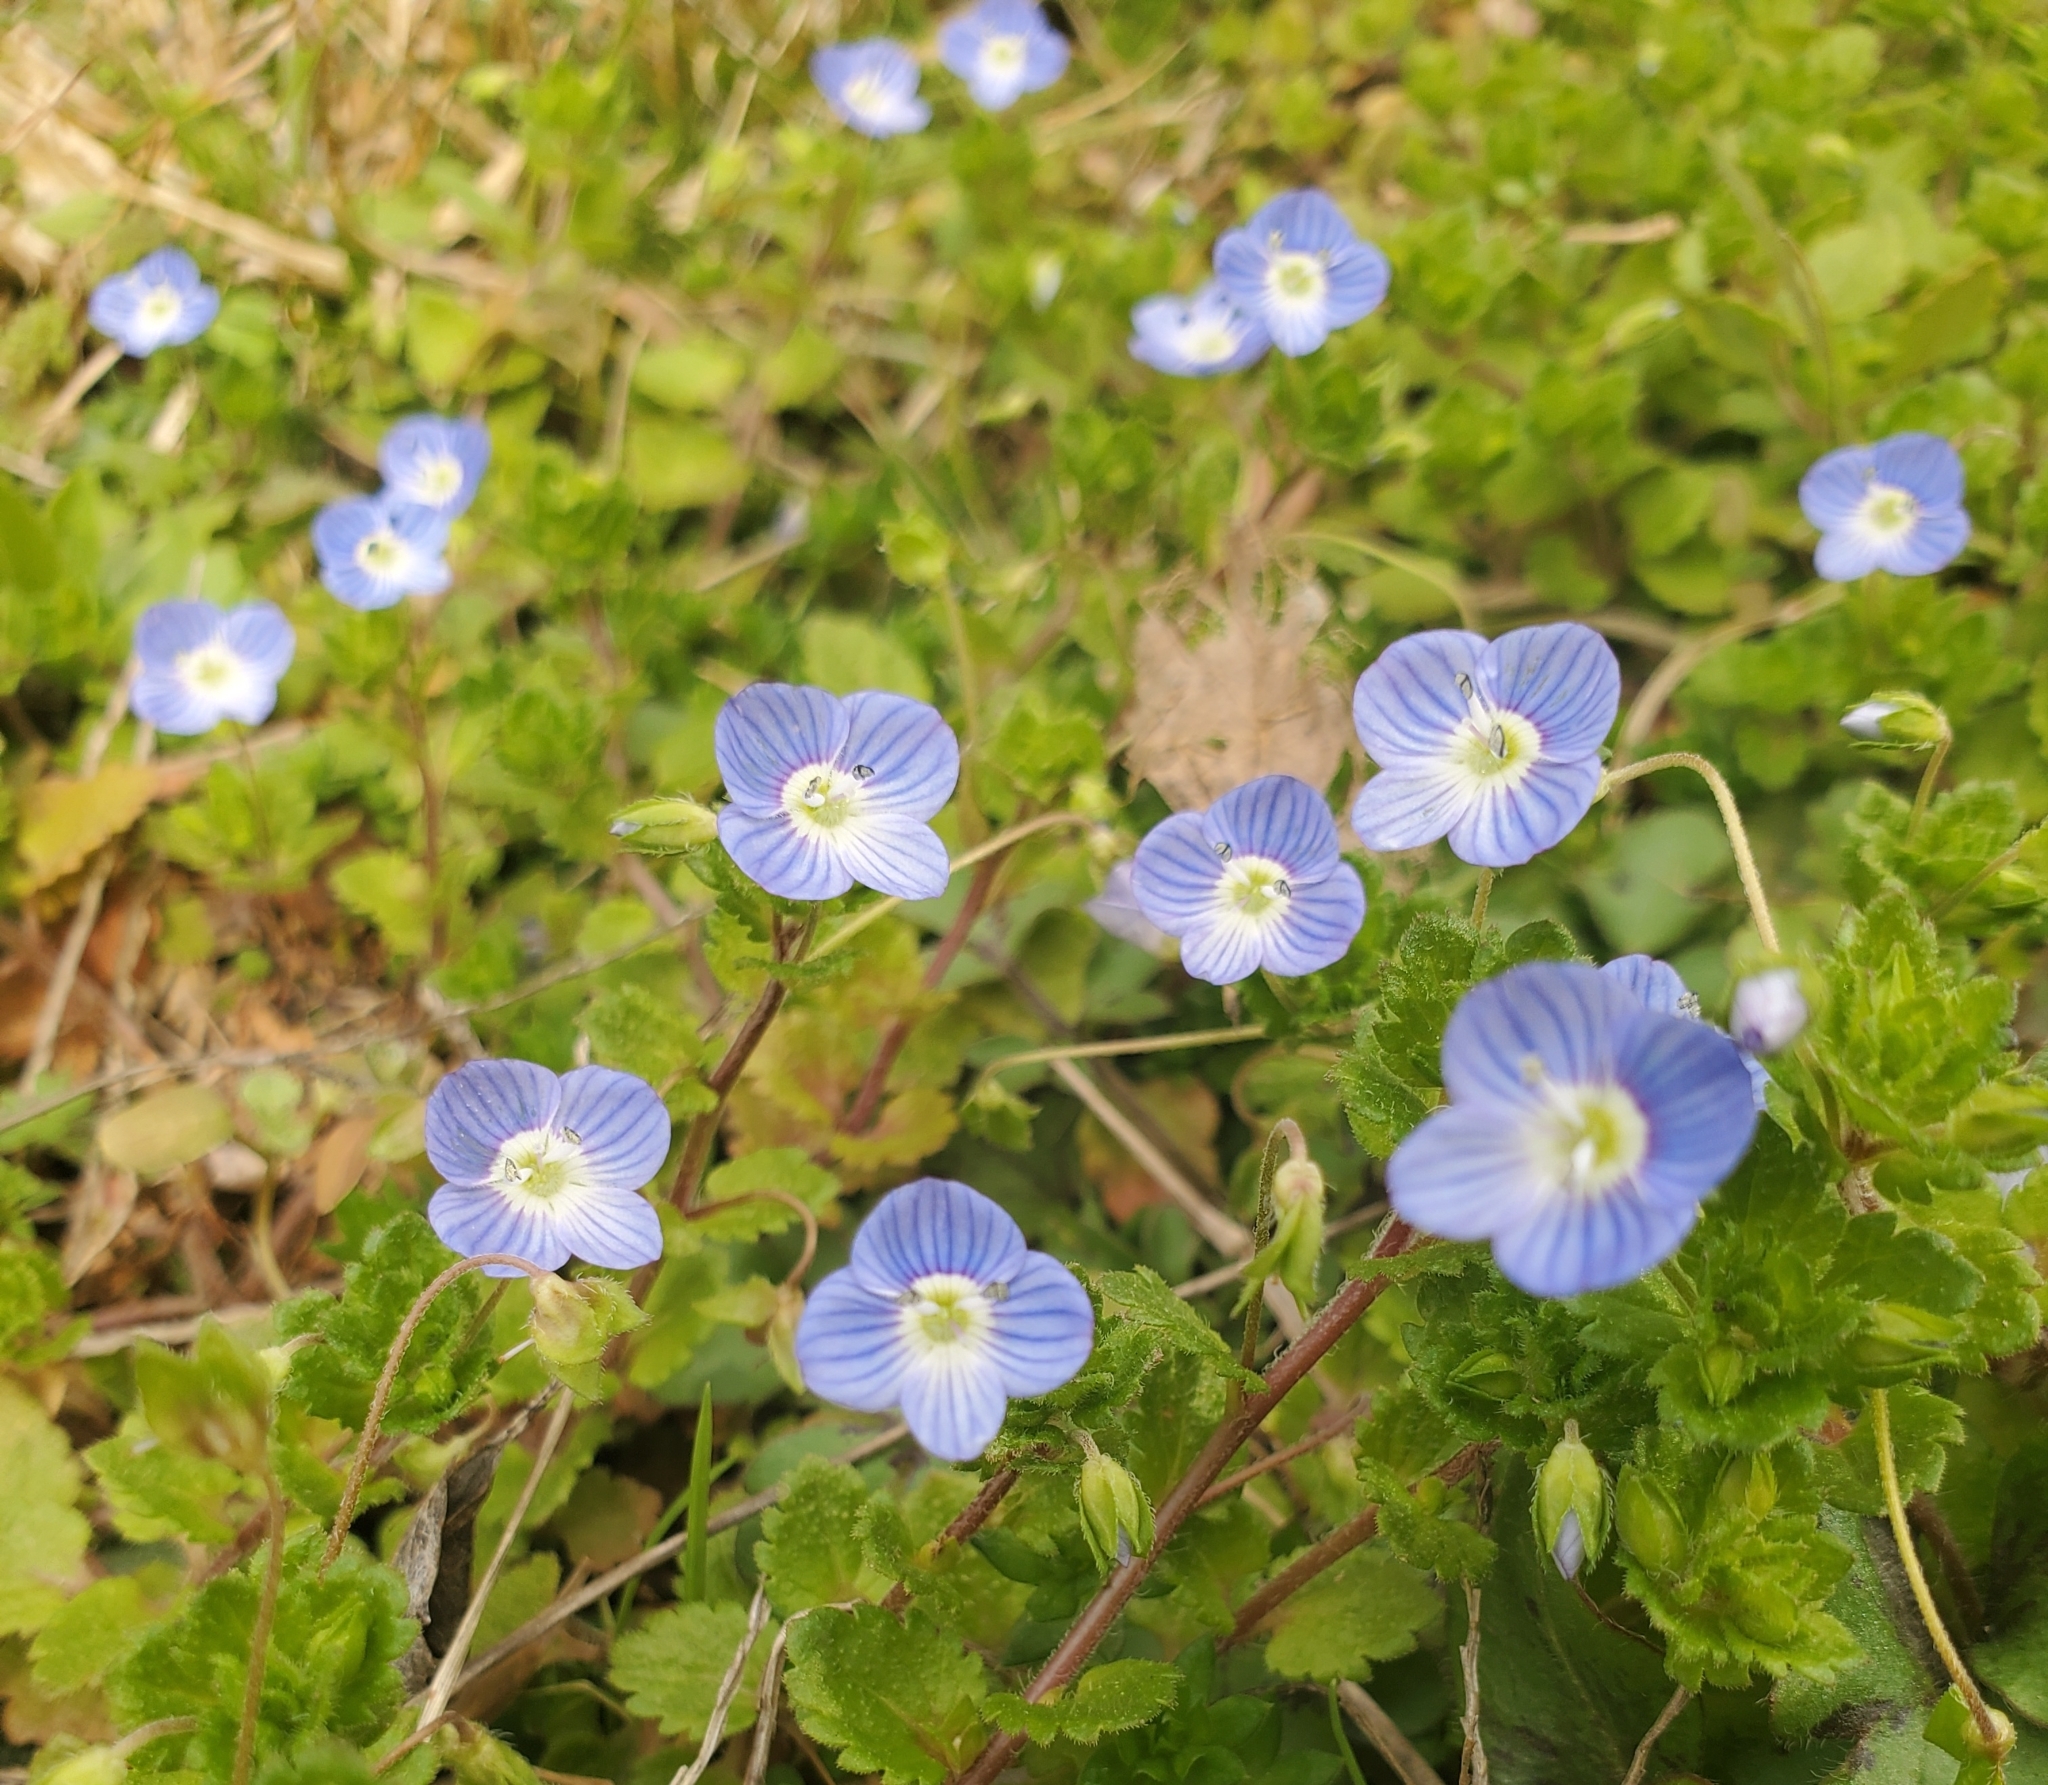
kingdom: Plantae
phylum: Tracheophyta
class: Magnoliopsida
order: Lamiales
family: Plantaginaceae
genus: Veronica
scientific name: Veronica persica
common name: Common field-speedwell
